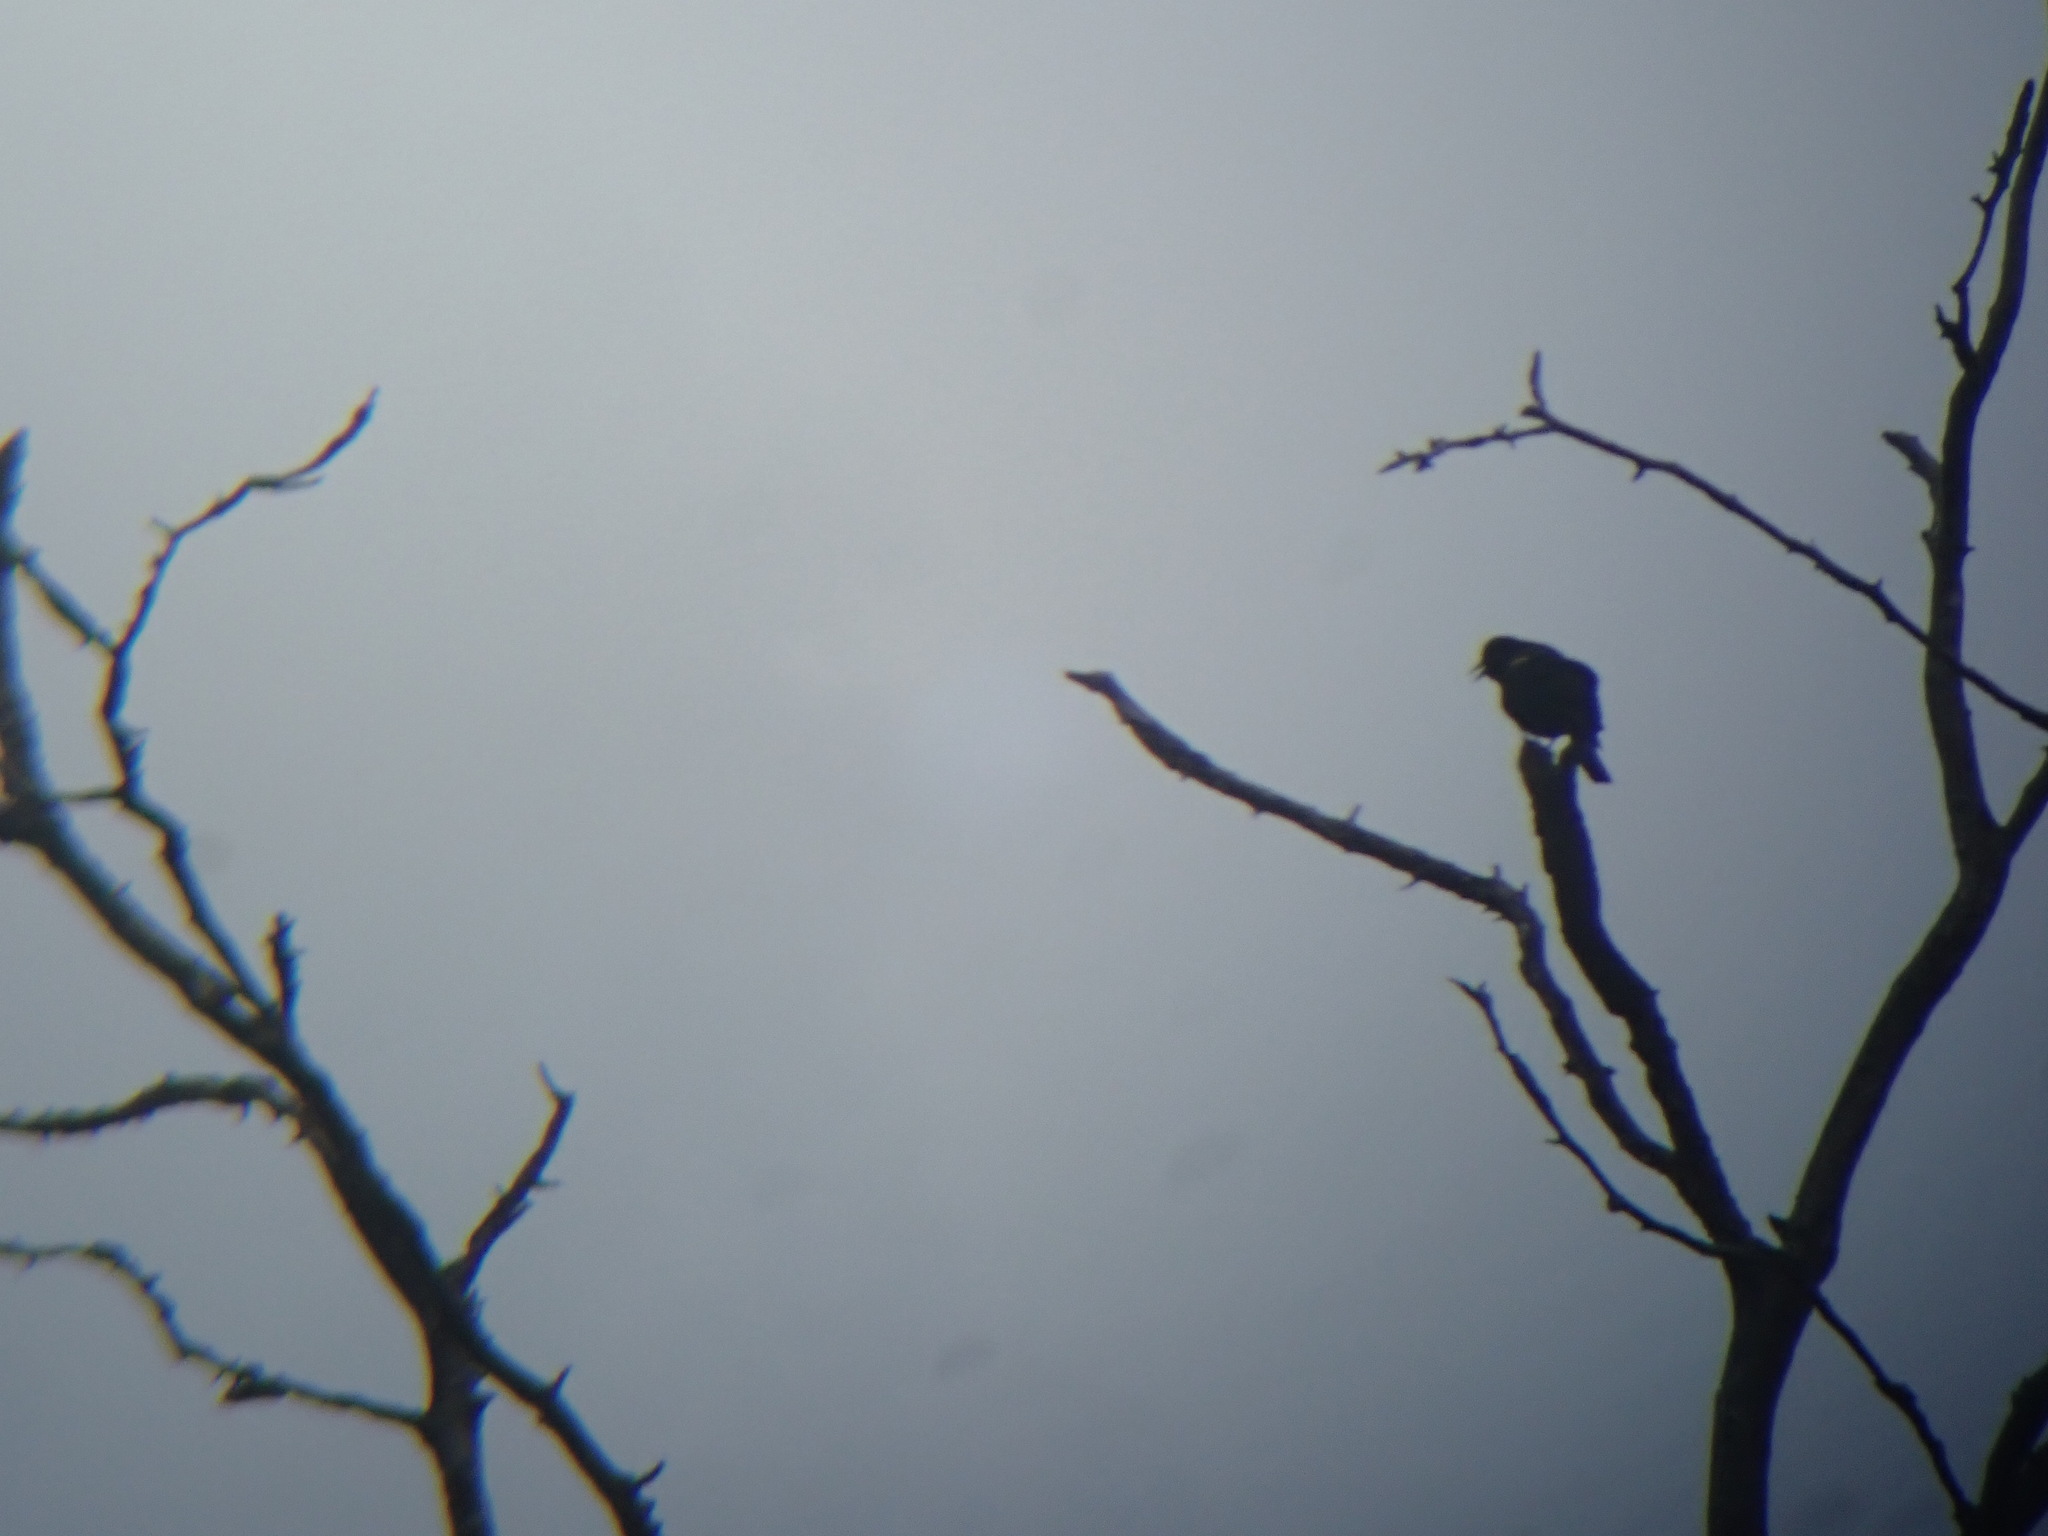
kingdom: Animalia
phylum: Chordata
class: Aves
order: Passeriformes
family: Icteridae
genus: Agelaius
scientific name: Agelaius phoeniceus
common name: Red-winged blackbird
